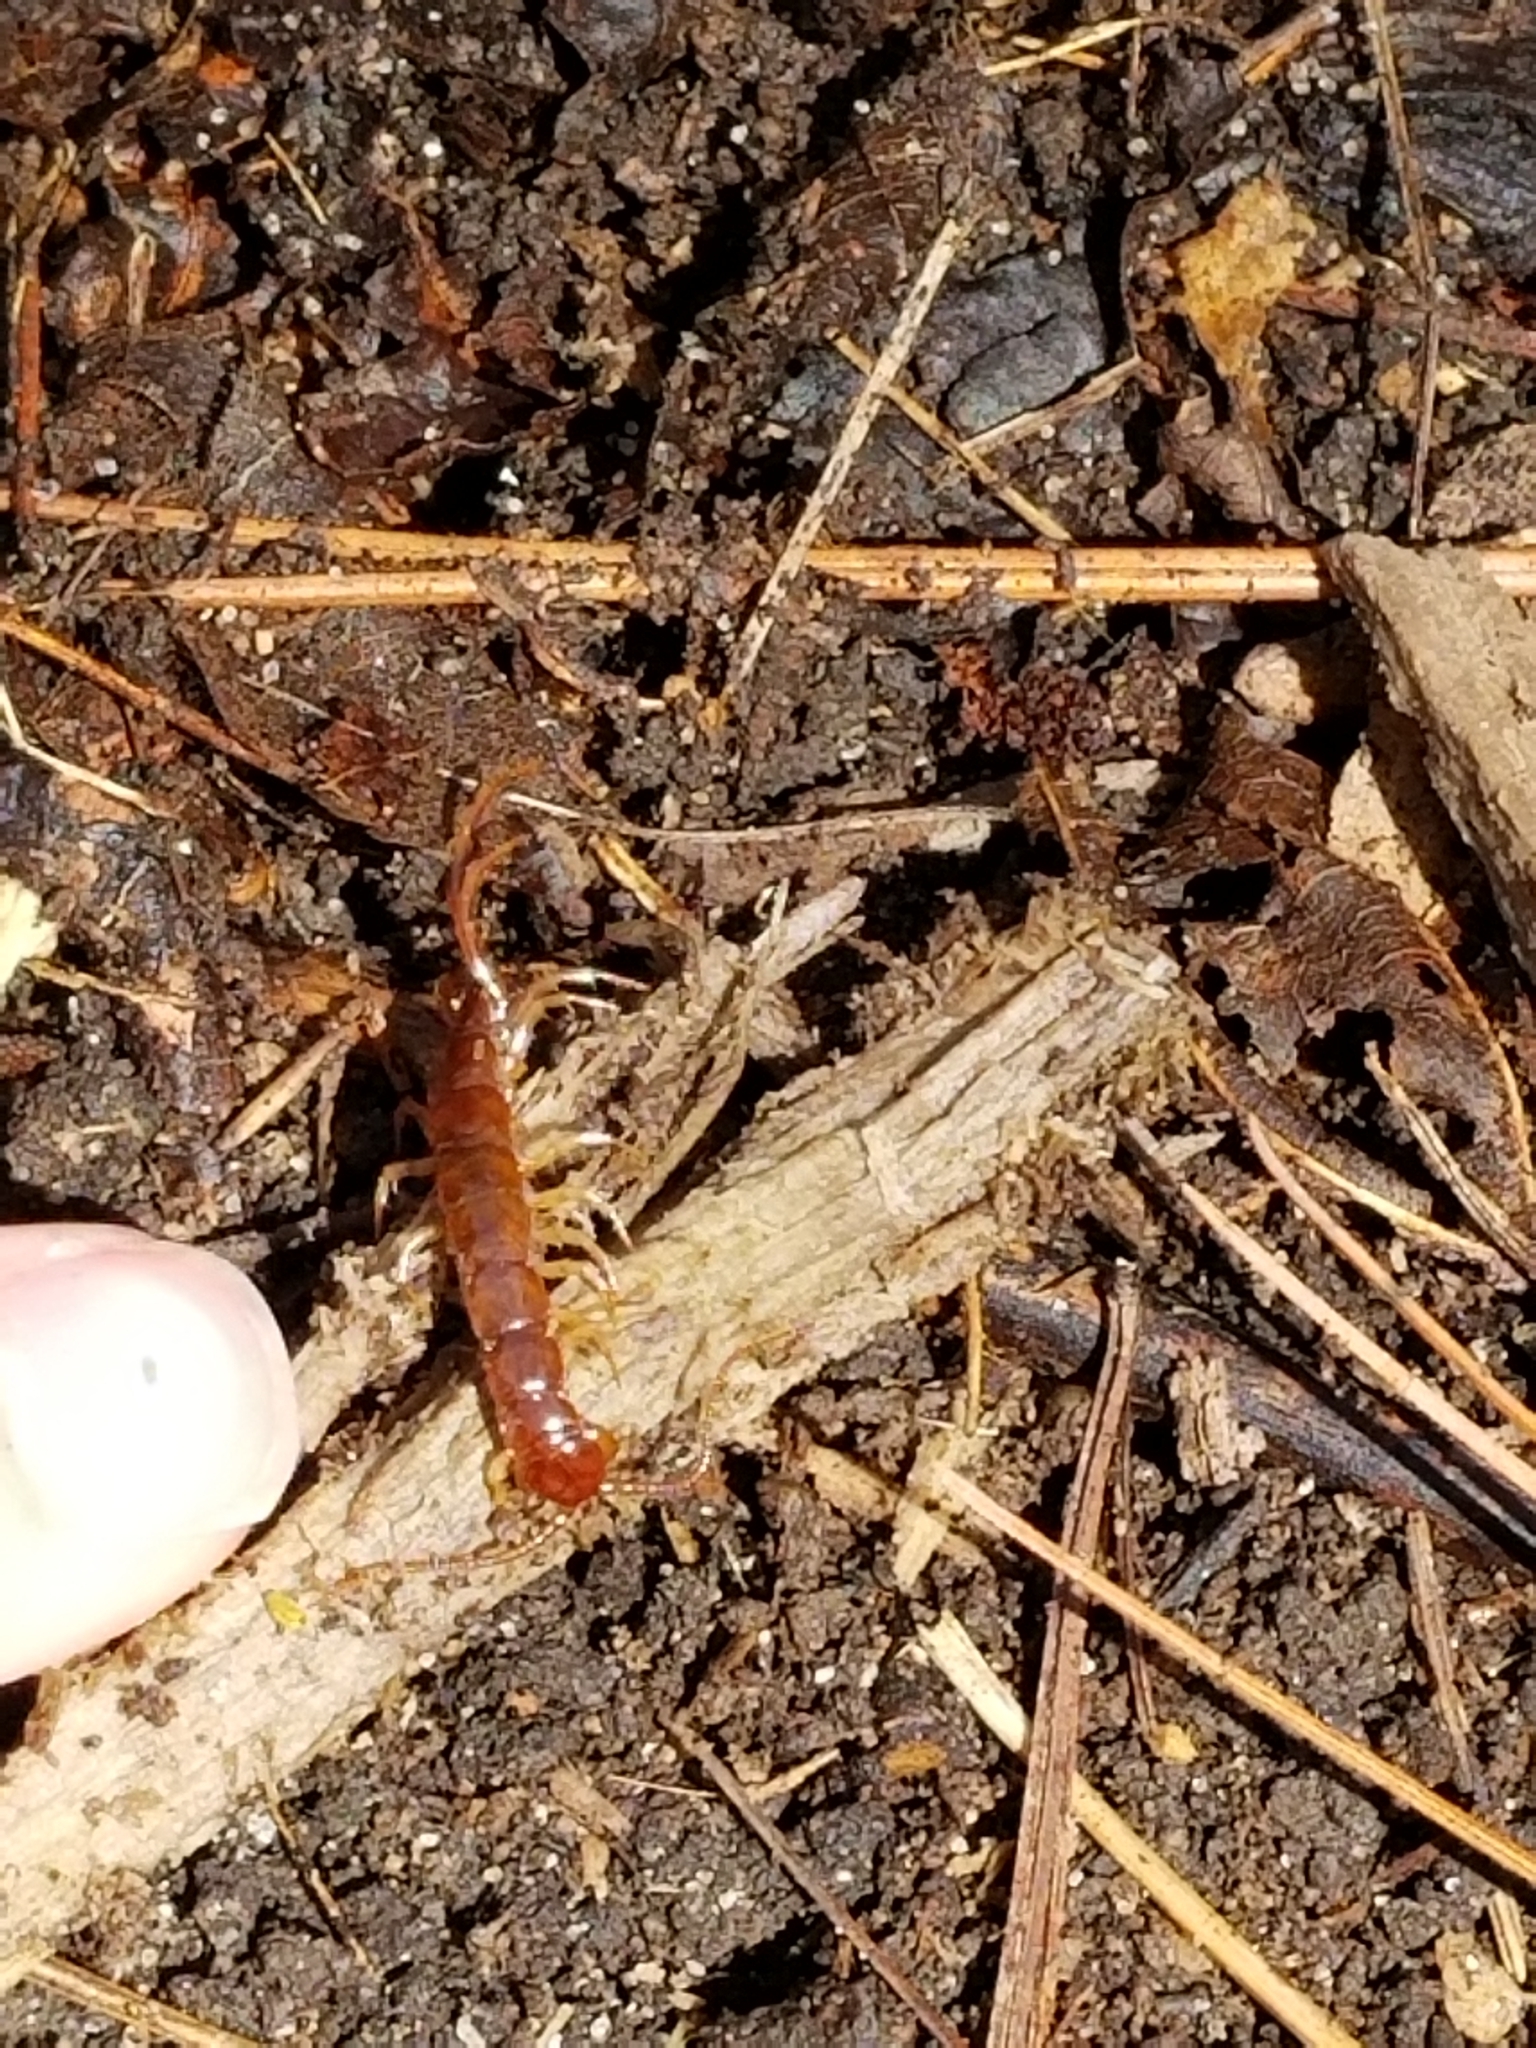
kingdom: Animalia
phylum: Arthropoda
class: Chilopoda
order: Lithobiomorpha
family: Lithobiidae
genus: Lithobius
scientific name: Lithobius forficatus
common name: Centipede
